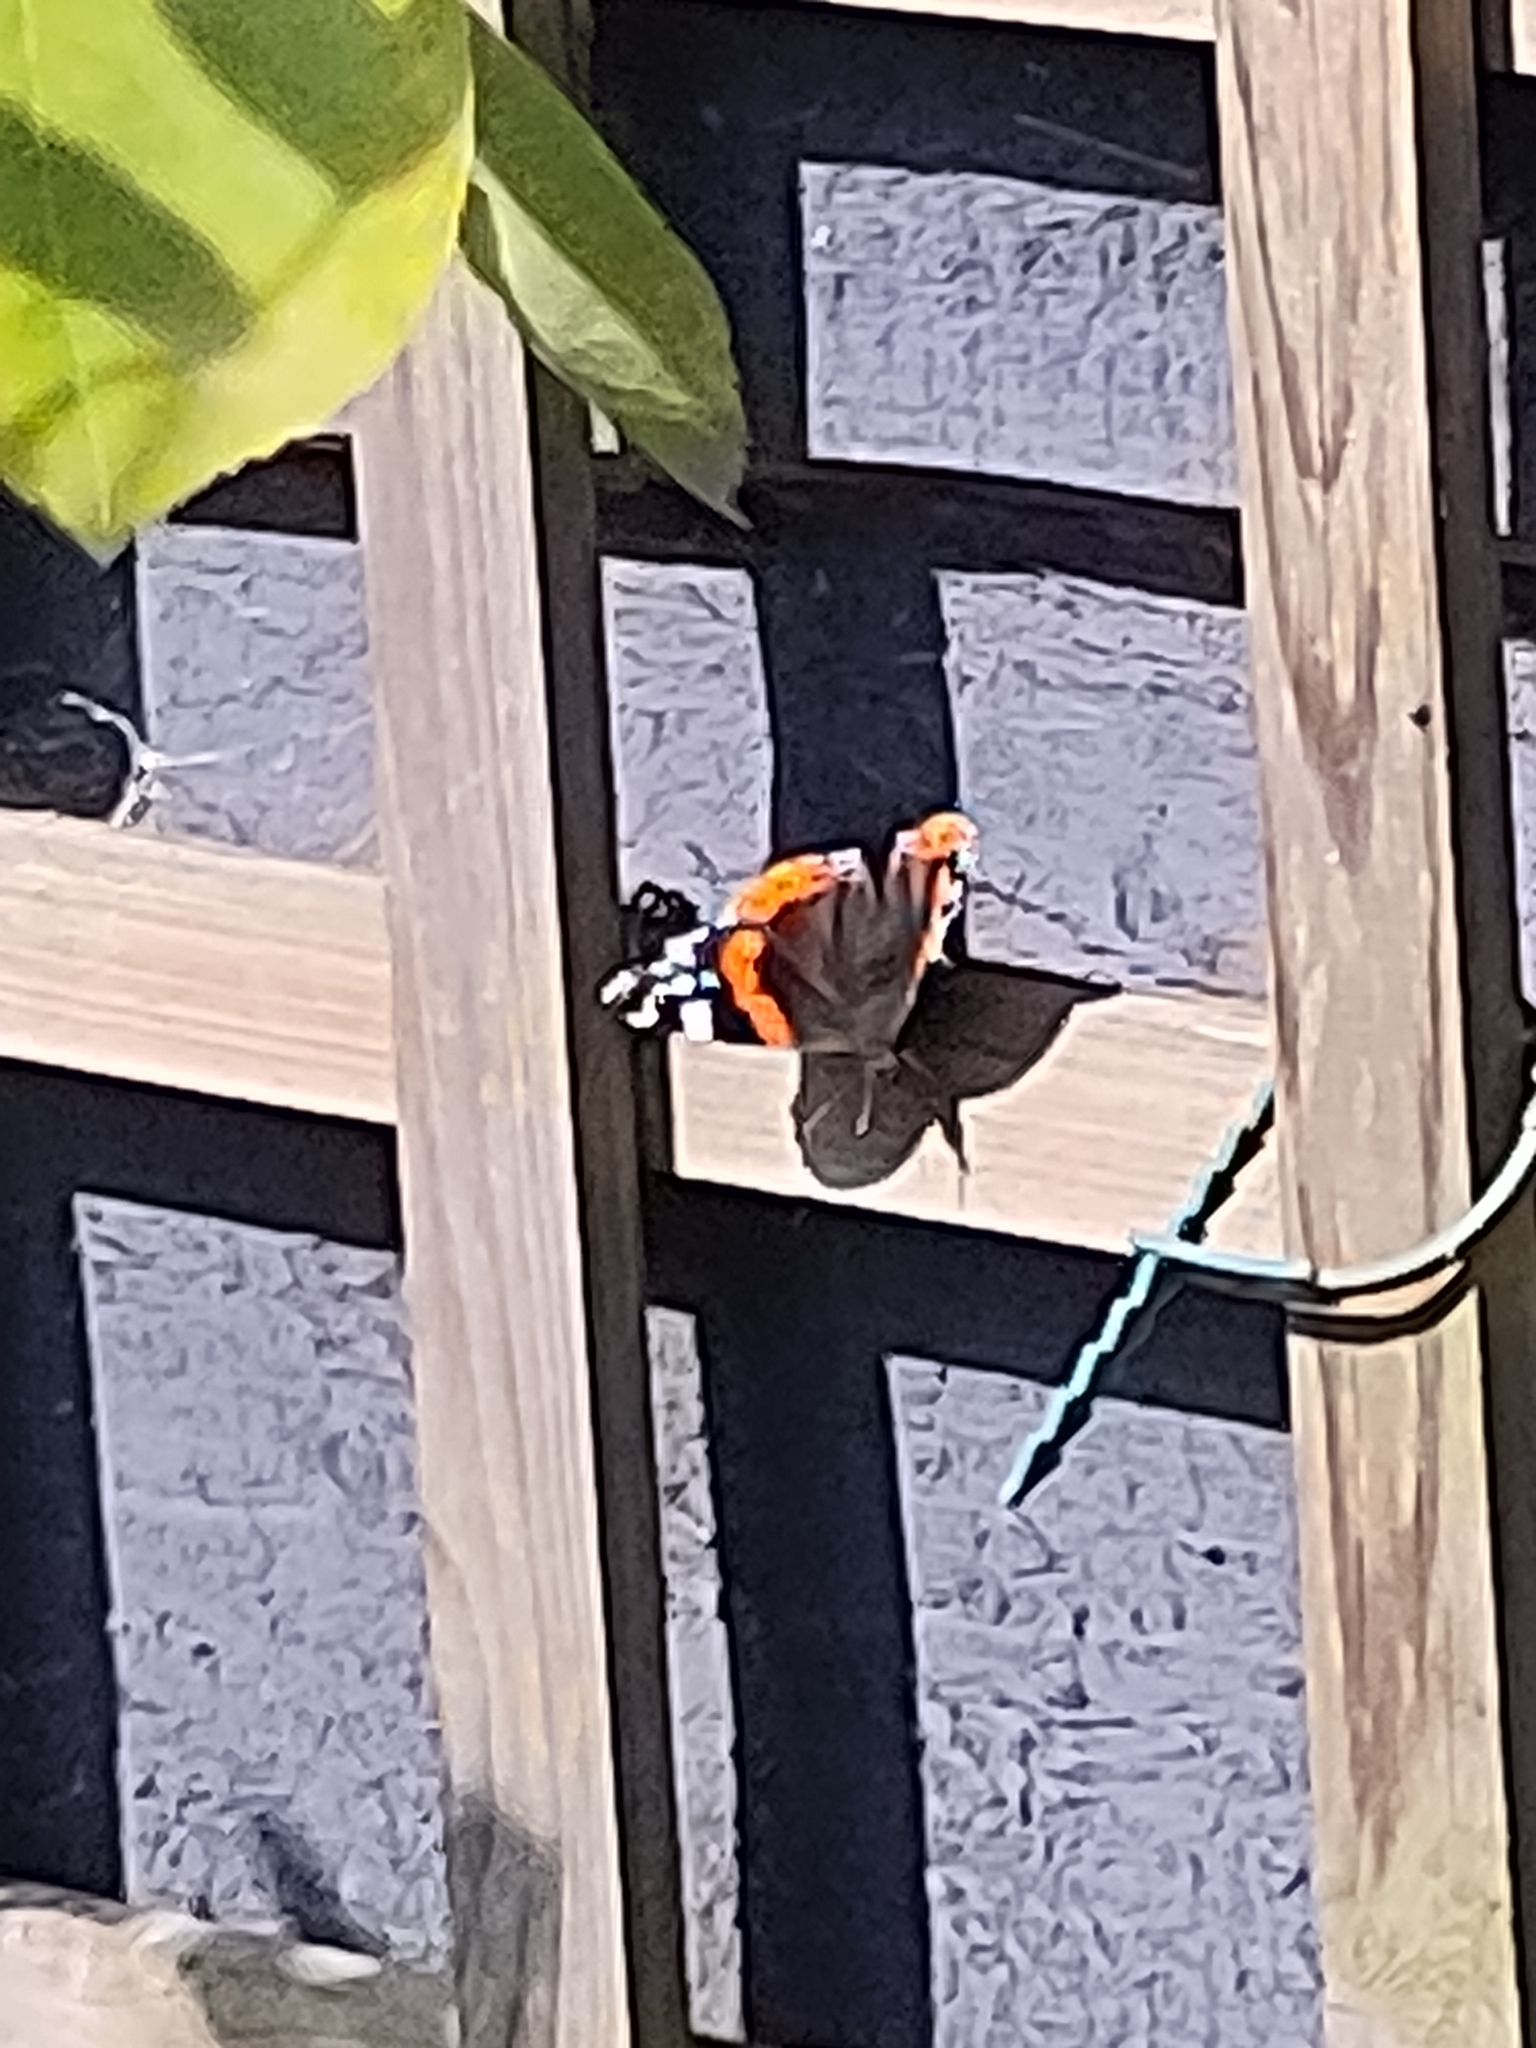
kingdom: Animalia
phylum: Arthropoda
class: Insecta
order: Lepidoptera
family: Nymphalidae
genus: Vanessa
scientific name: Vanessa atalanta
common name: Red admiral
